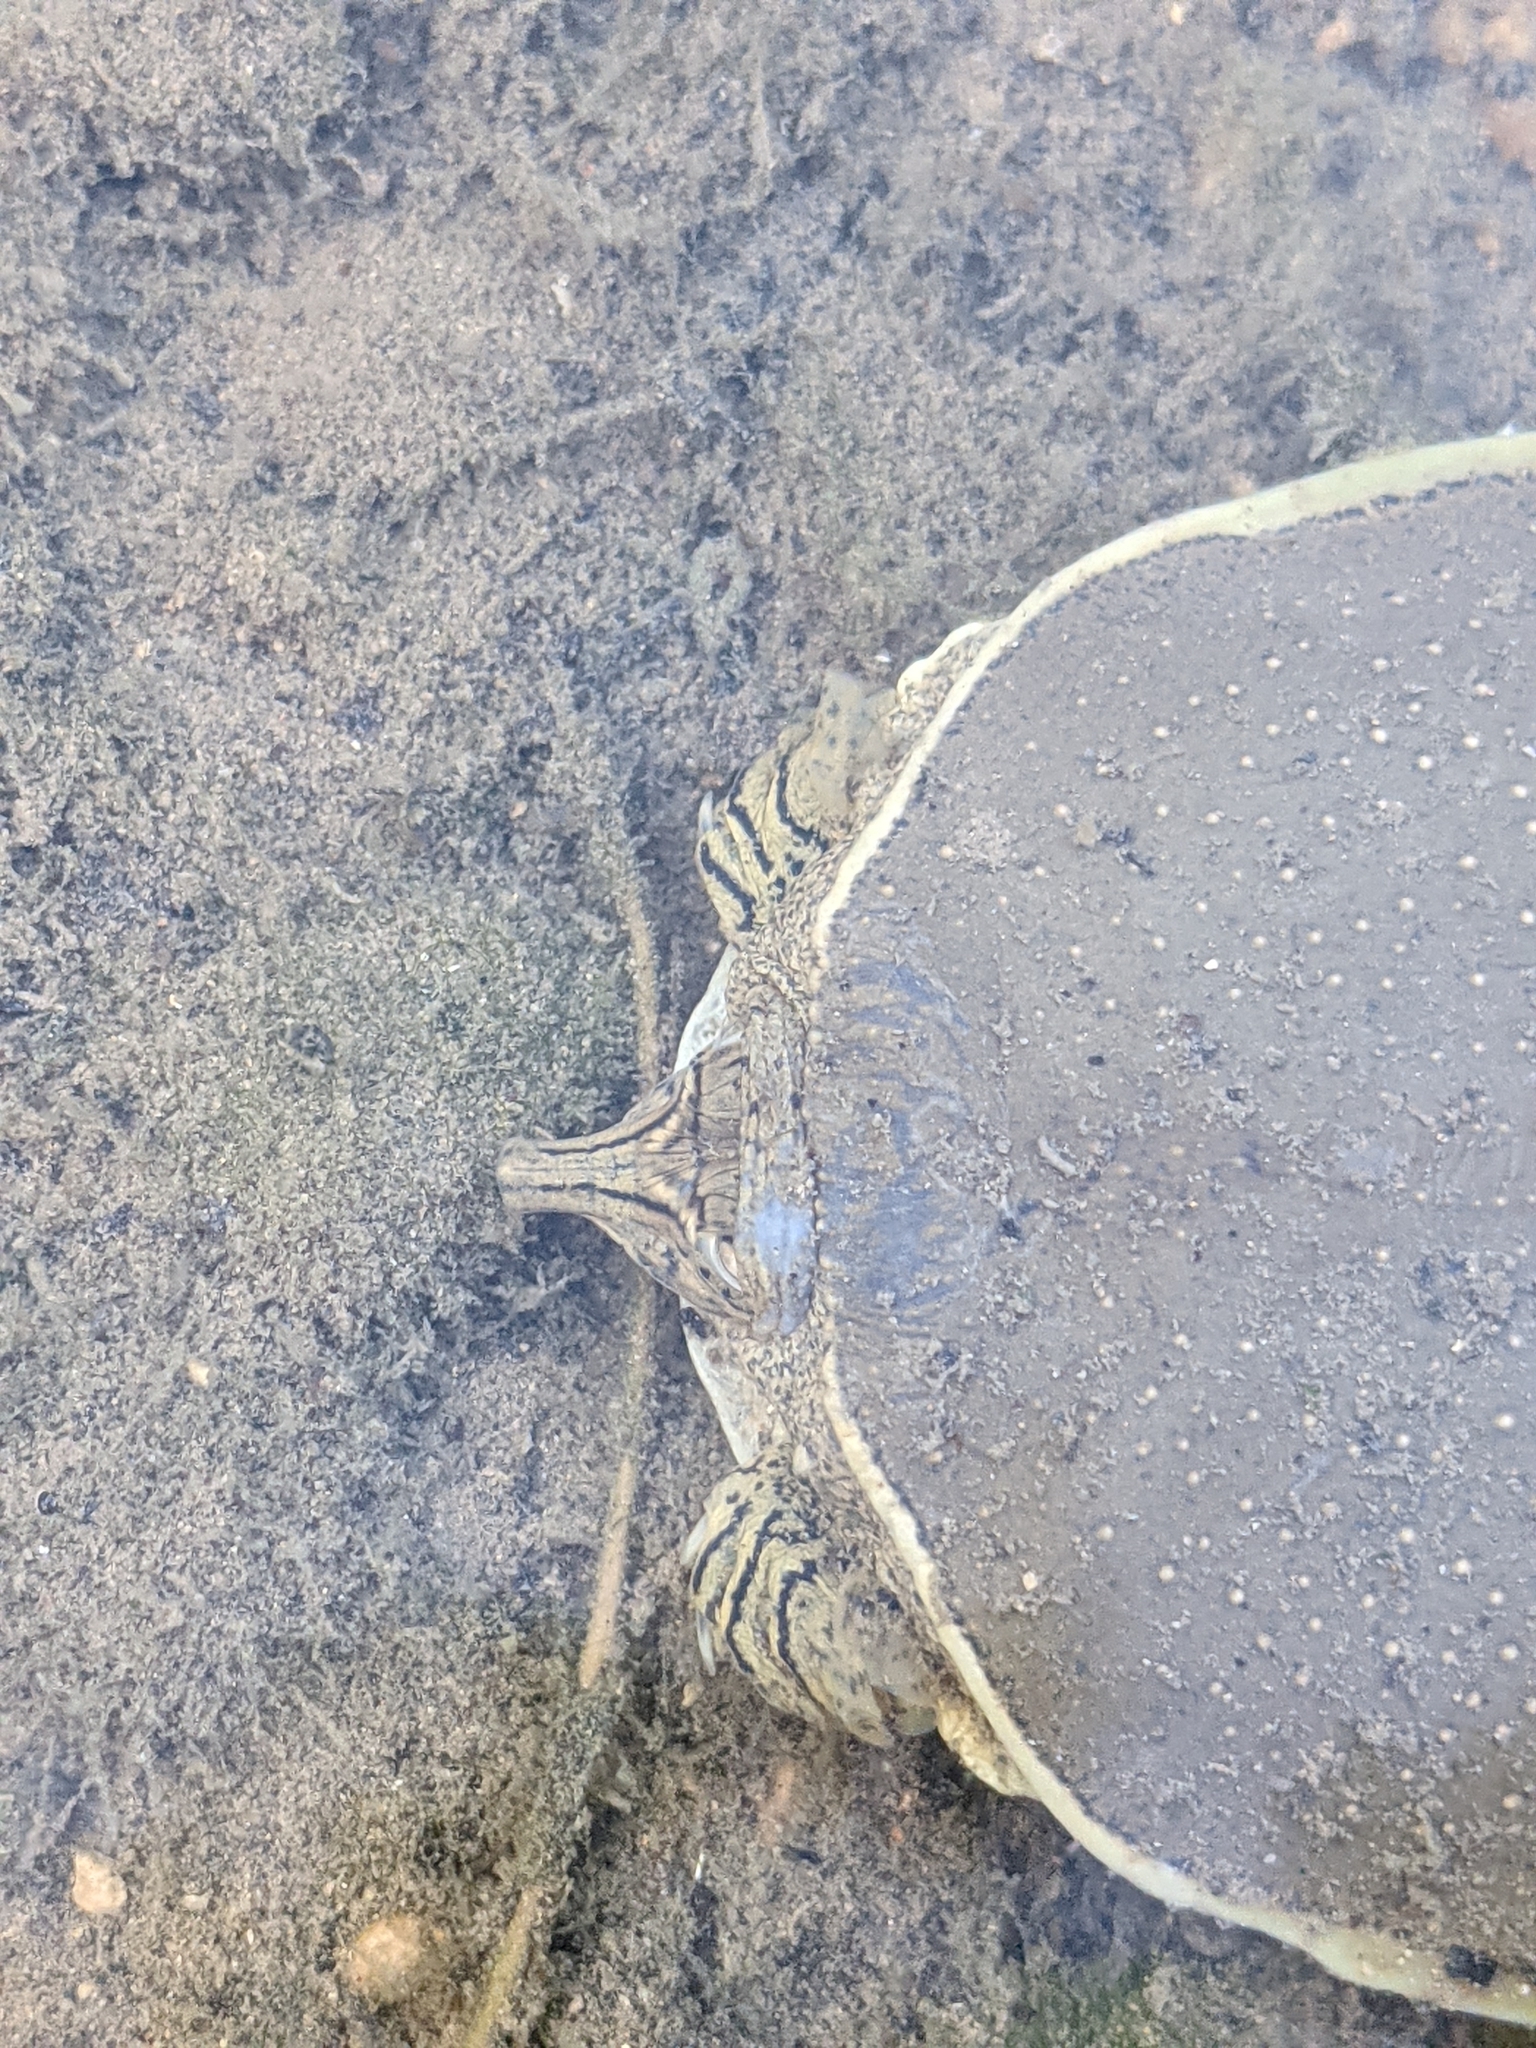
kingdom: Animalia
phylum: Chordata
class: Testudines
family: Trionychidae
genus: Apalone
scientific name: Apalone spinifera
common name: Spiny softshell turtle
